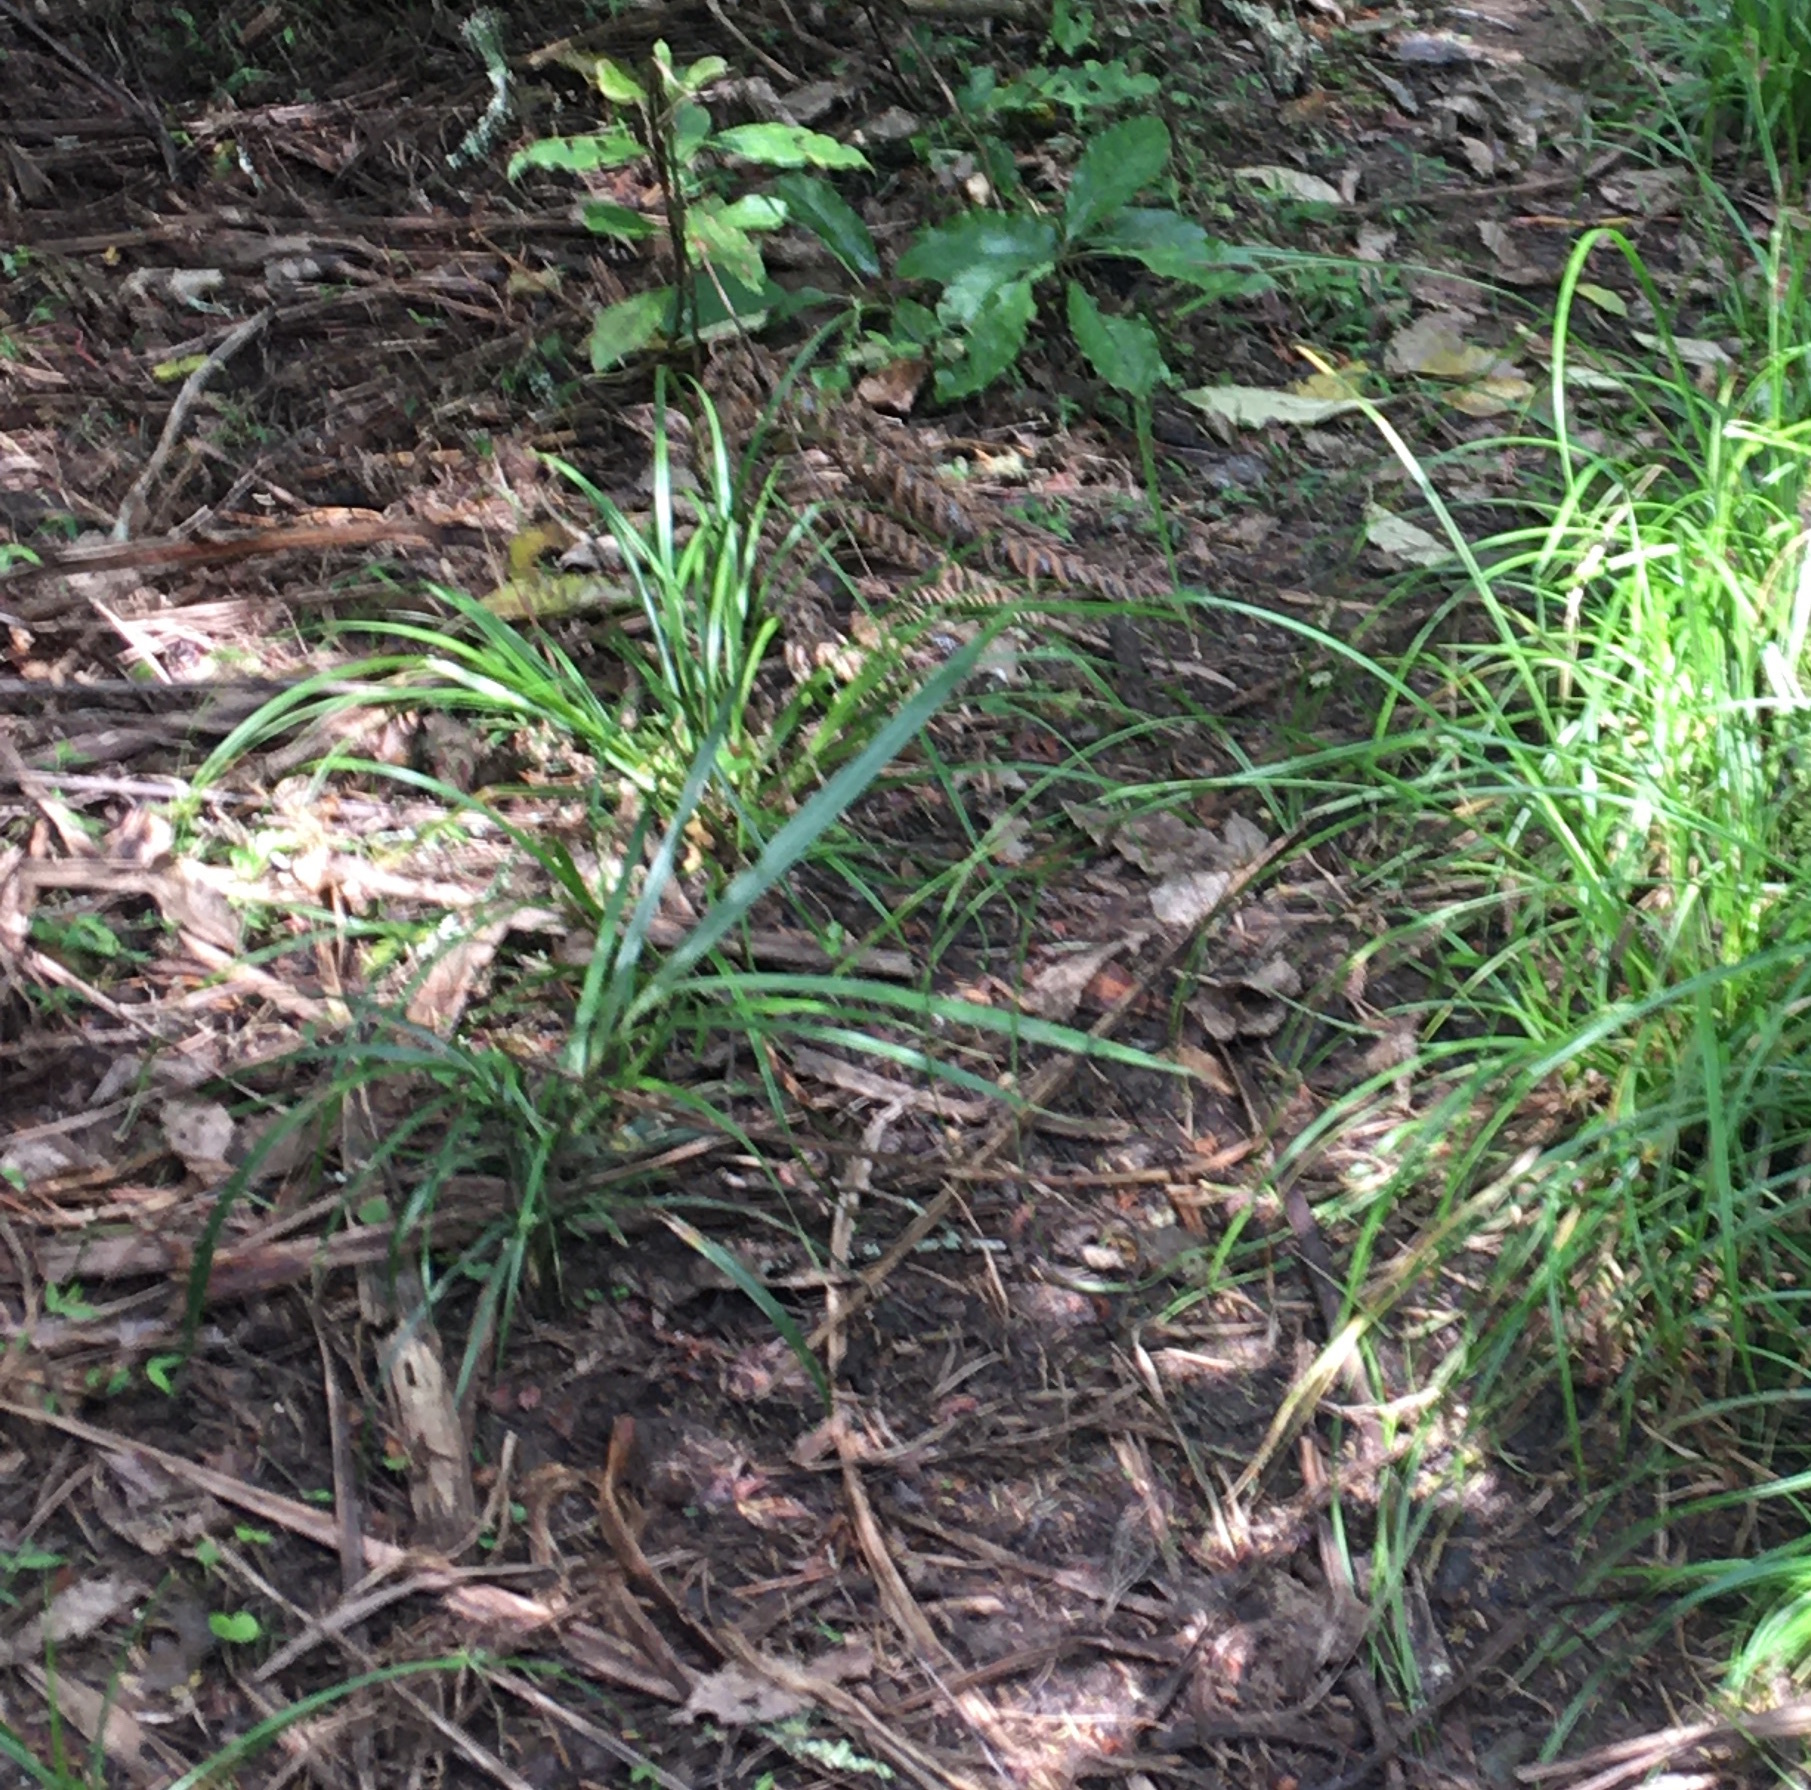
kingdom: Plantae
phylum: Tracheophyta
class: Liliopsida
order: Arecales
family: Arecaceae
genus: Rhopalostylis
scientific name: Rhopalostylis sapida
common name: Feather-duster palm
